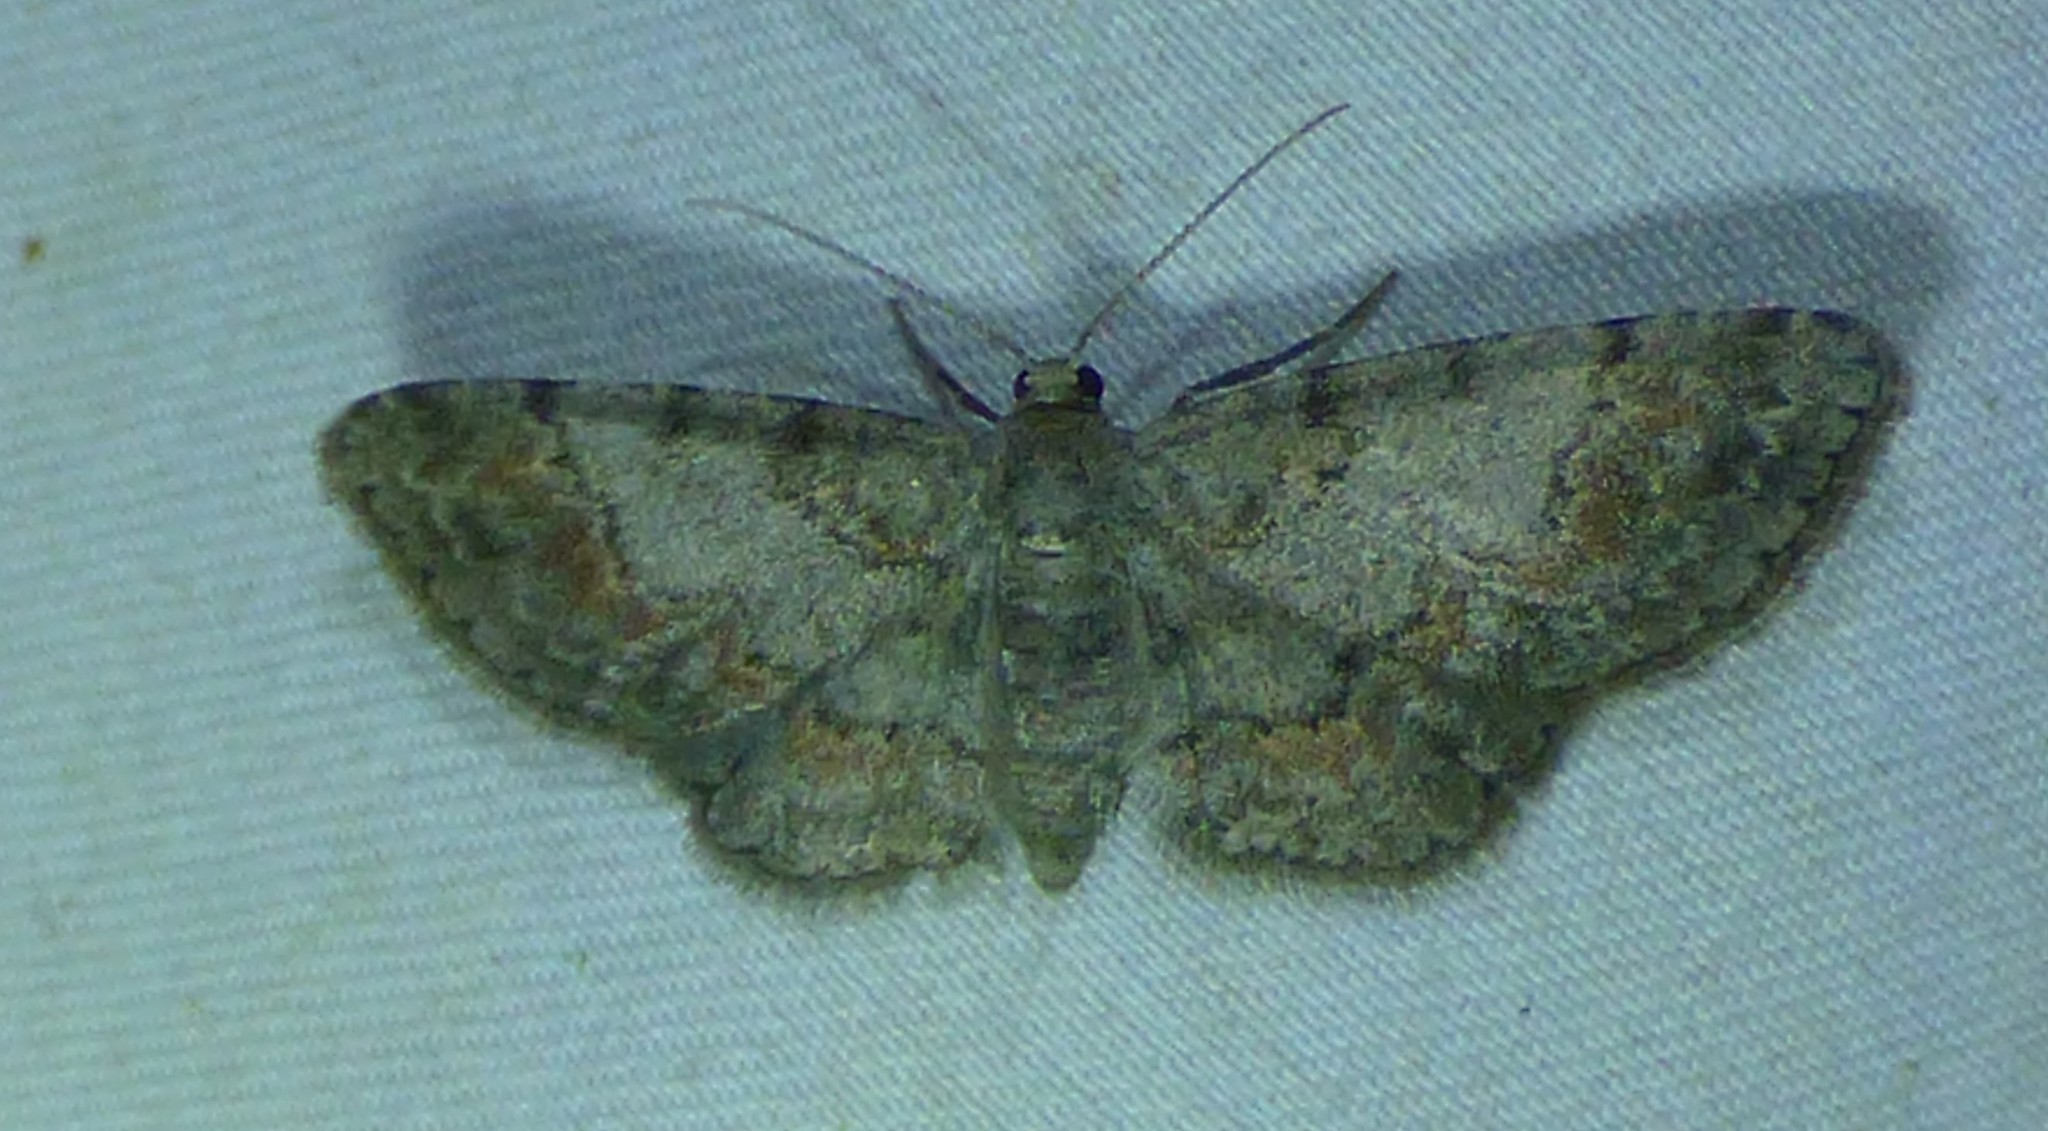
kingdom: Animalia
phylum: Arthropoda
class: Insecta
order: Lepidoptera
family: Geometridae
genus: Glenoides
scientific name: Glenoides texanaria
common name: Texas gray
